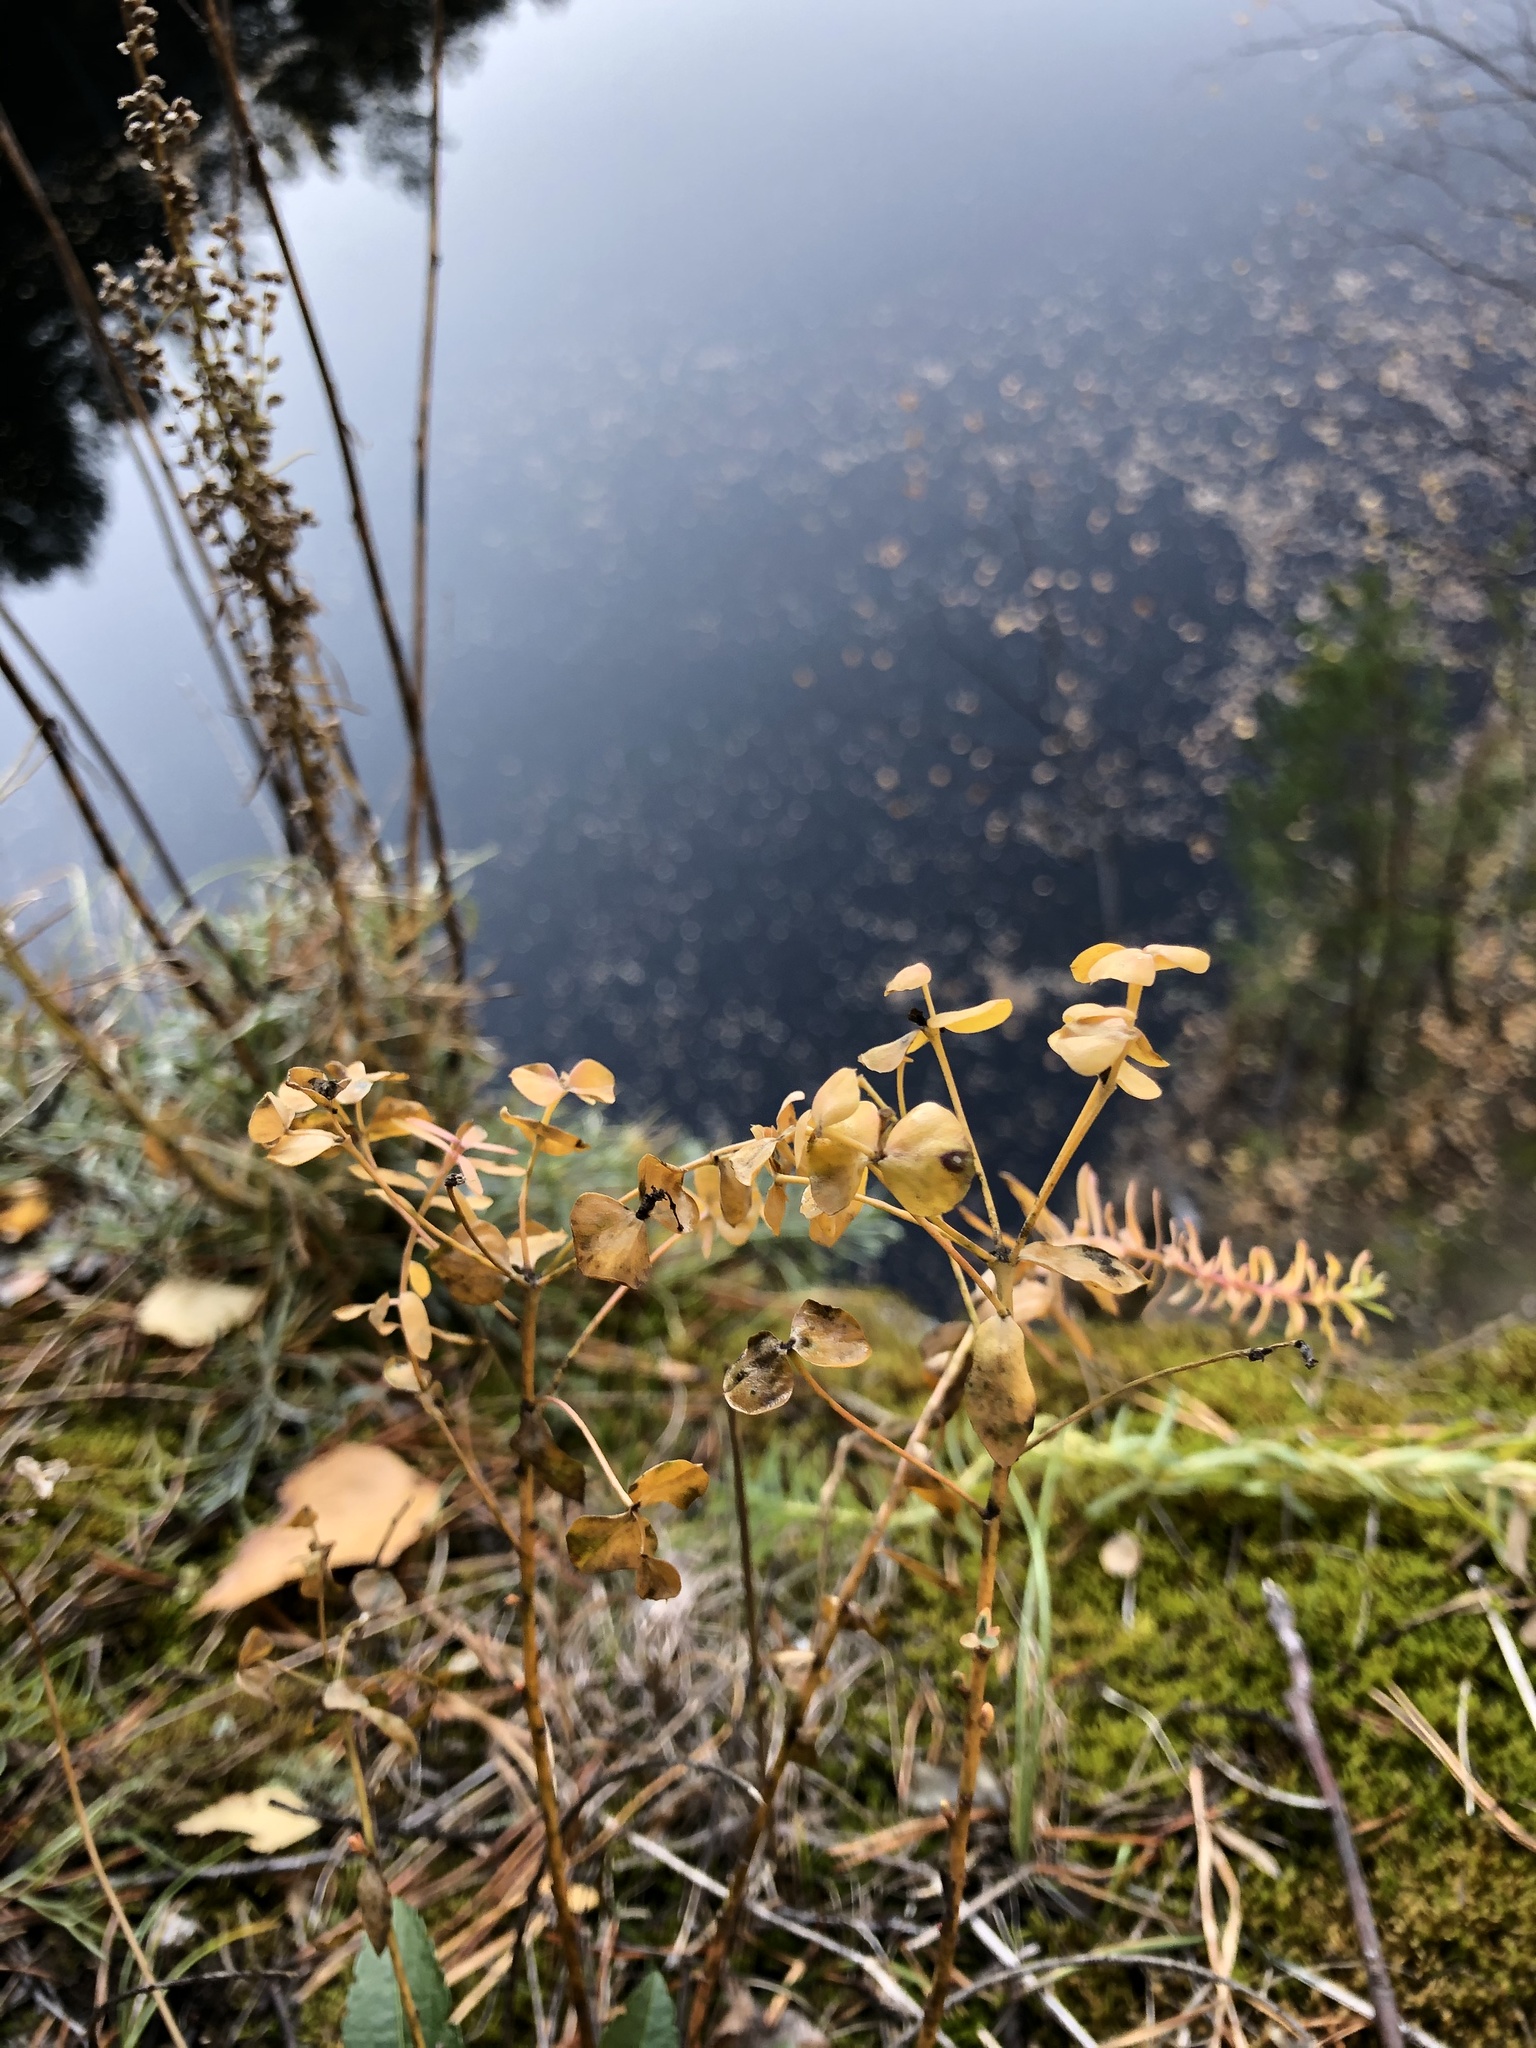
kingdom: Plantae
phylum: Tracheophyta
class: Magnoliopsida
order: Malpighiales
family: Euphorbiaceae
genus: Euphorbia
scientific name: Euphorbia caesia
